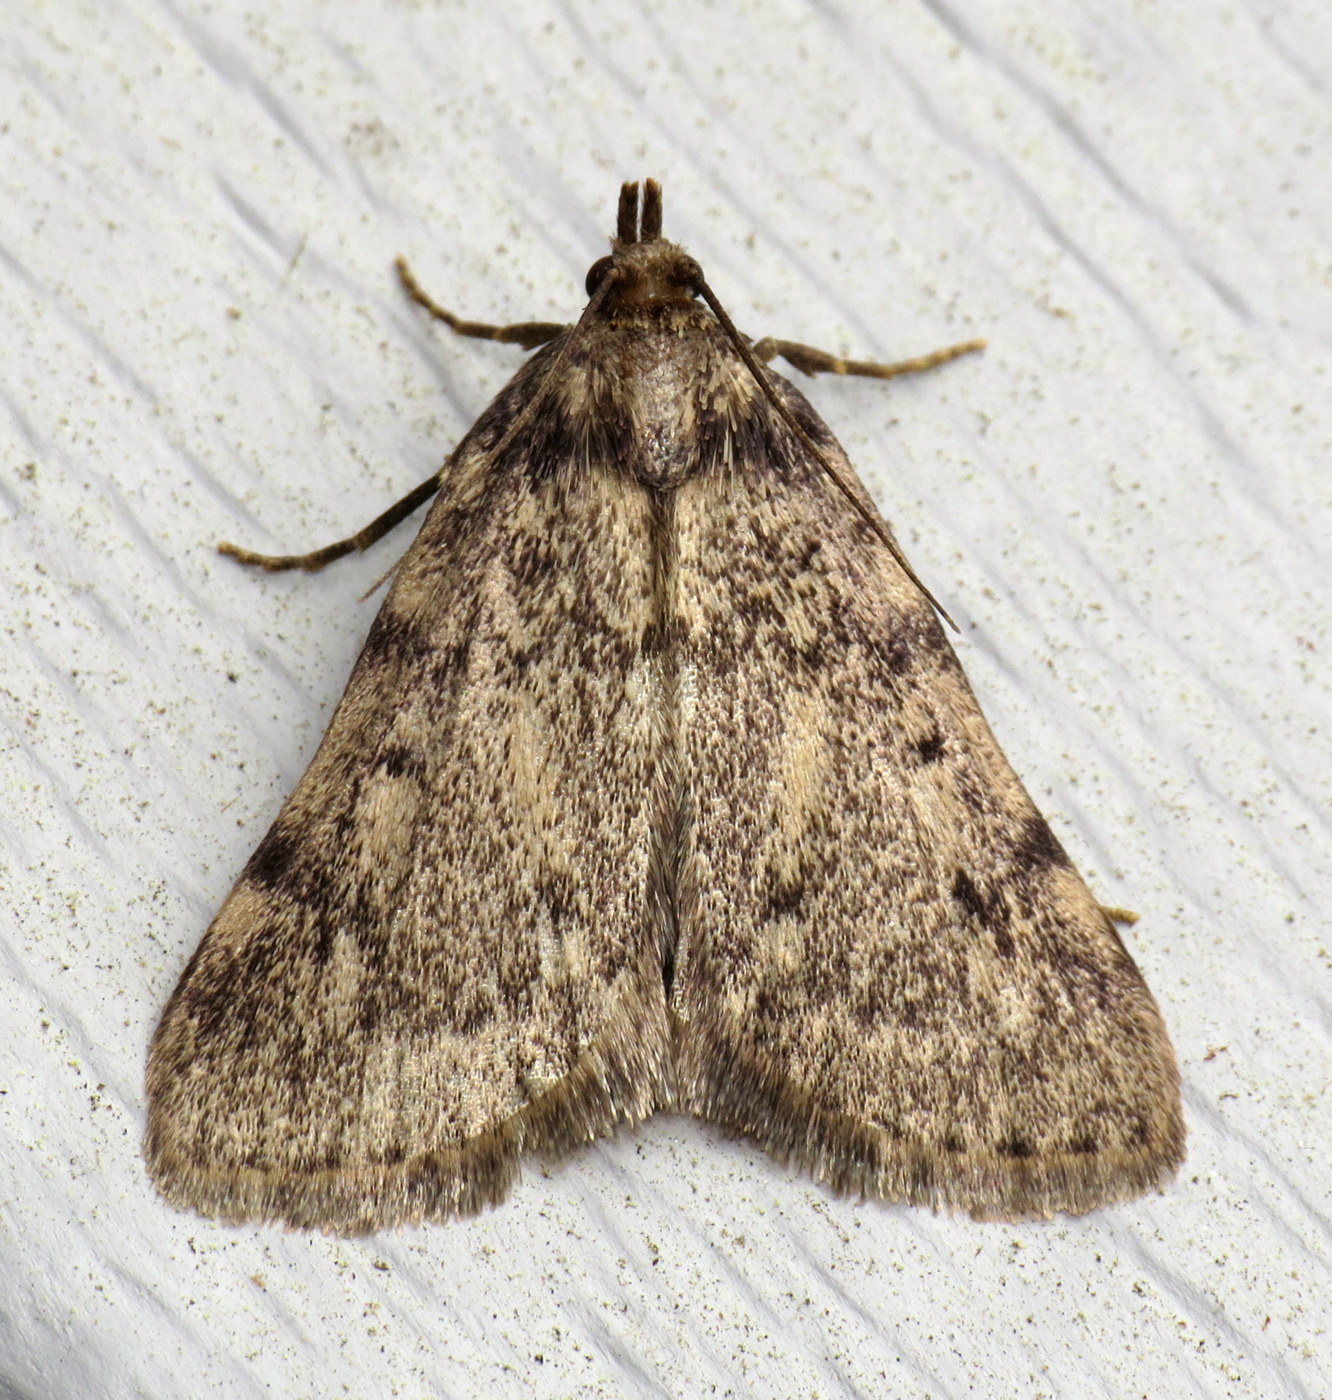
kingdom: Animalia
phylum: Arthropoda
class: Insecta
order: Lepidoptera
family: Pyralidae
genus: Aglossa
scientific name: Aglossa pinguinalis
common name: Large tabby
